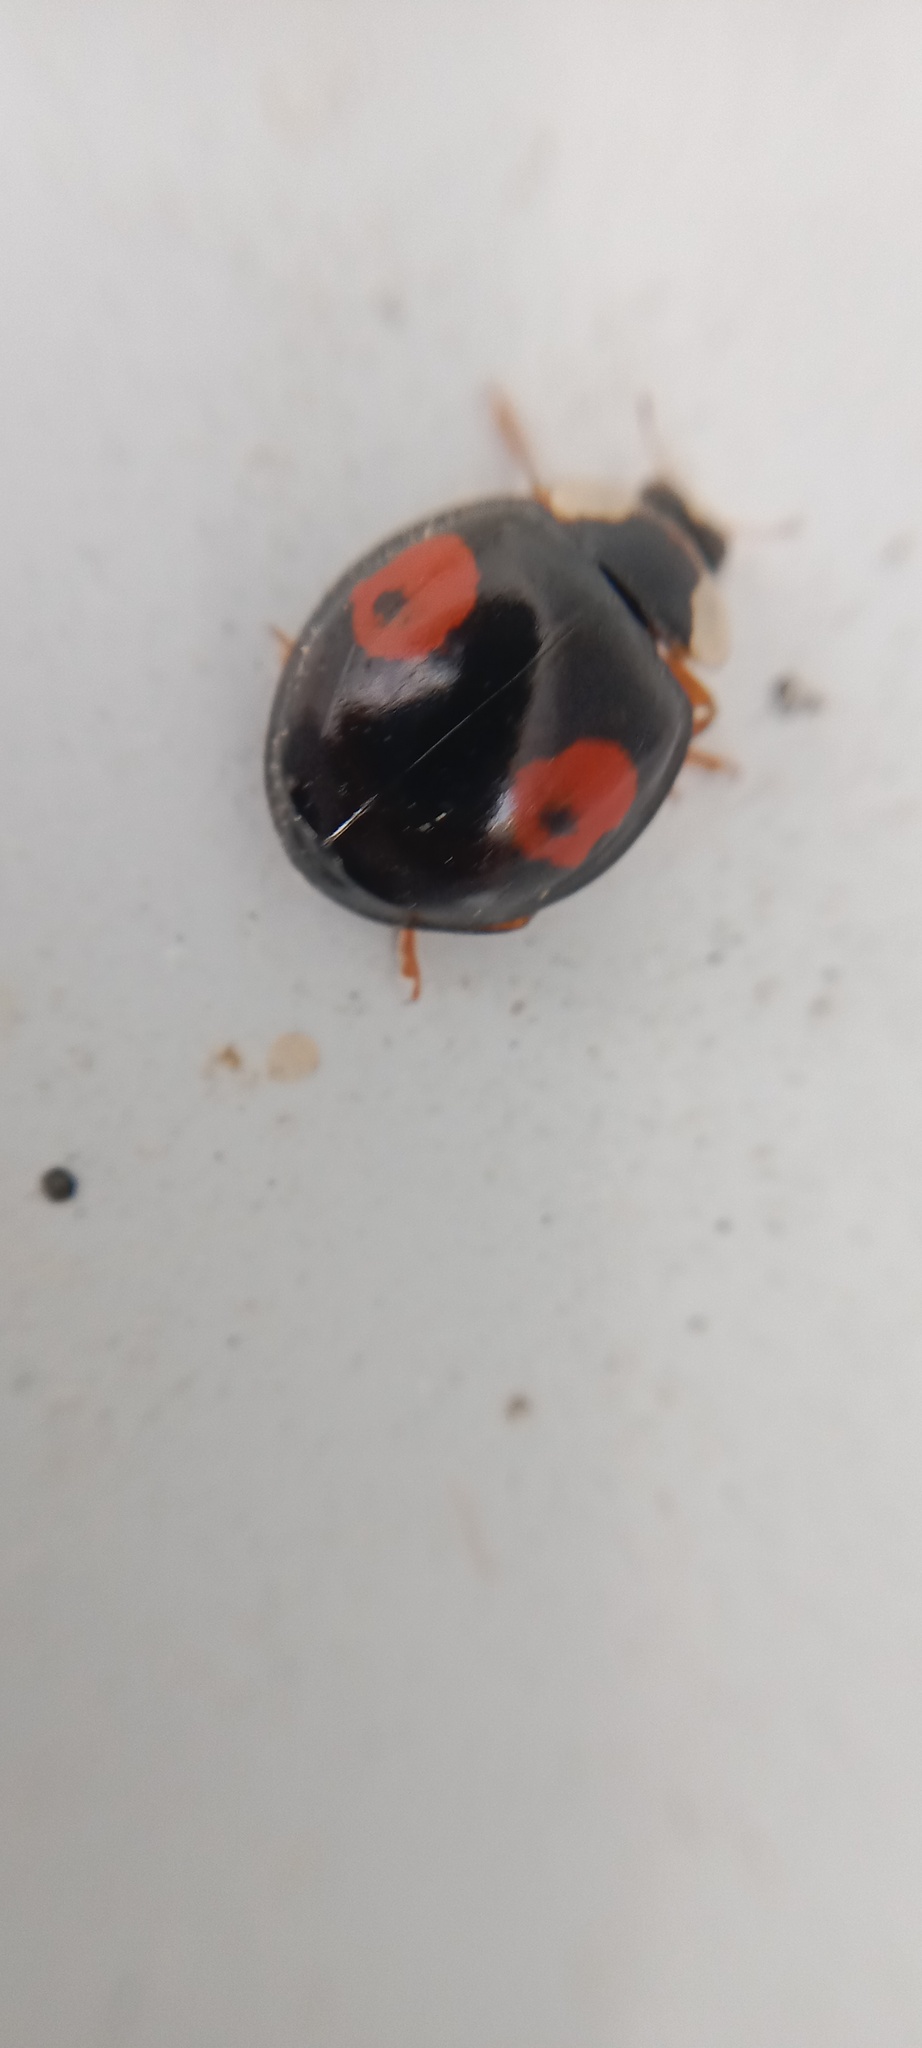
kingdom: Animalia
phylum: Arthropoda
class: Insecta
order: Coleoptera
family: Coccinellidae
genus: Harmonia
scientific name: Harmonia axyridis
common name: Harlequin ladybird
